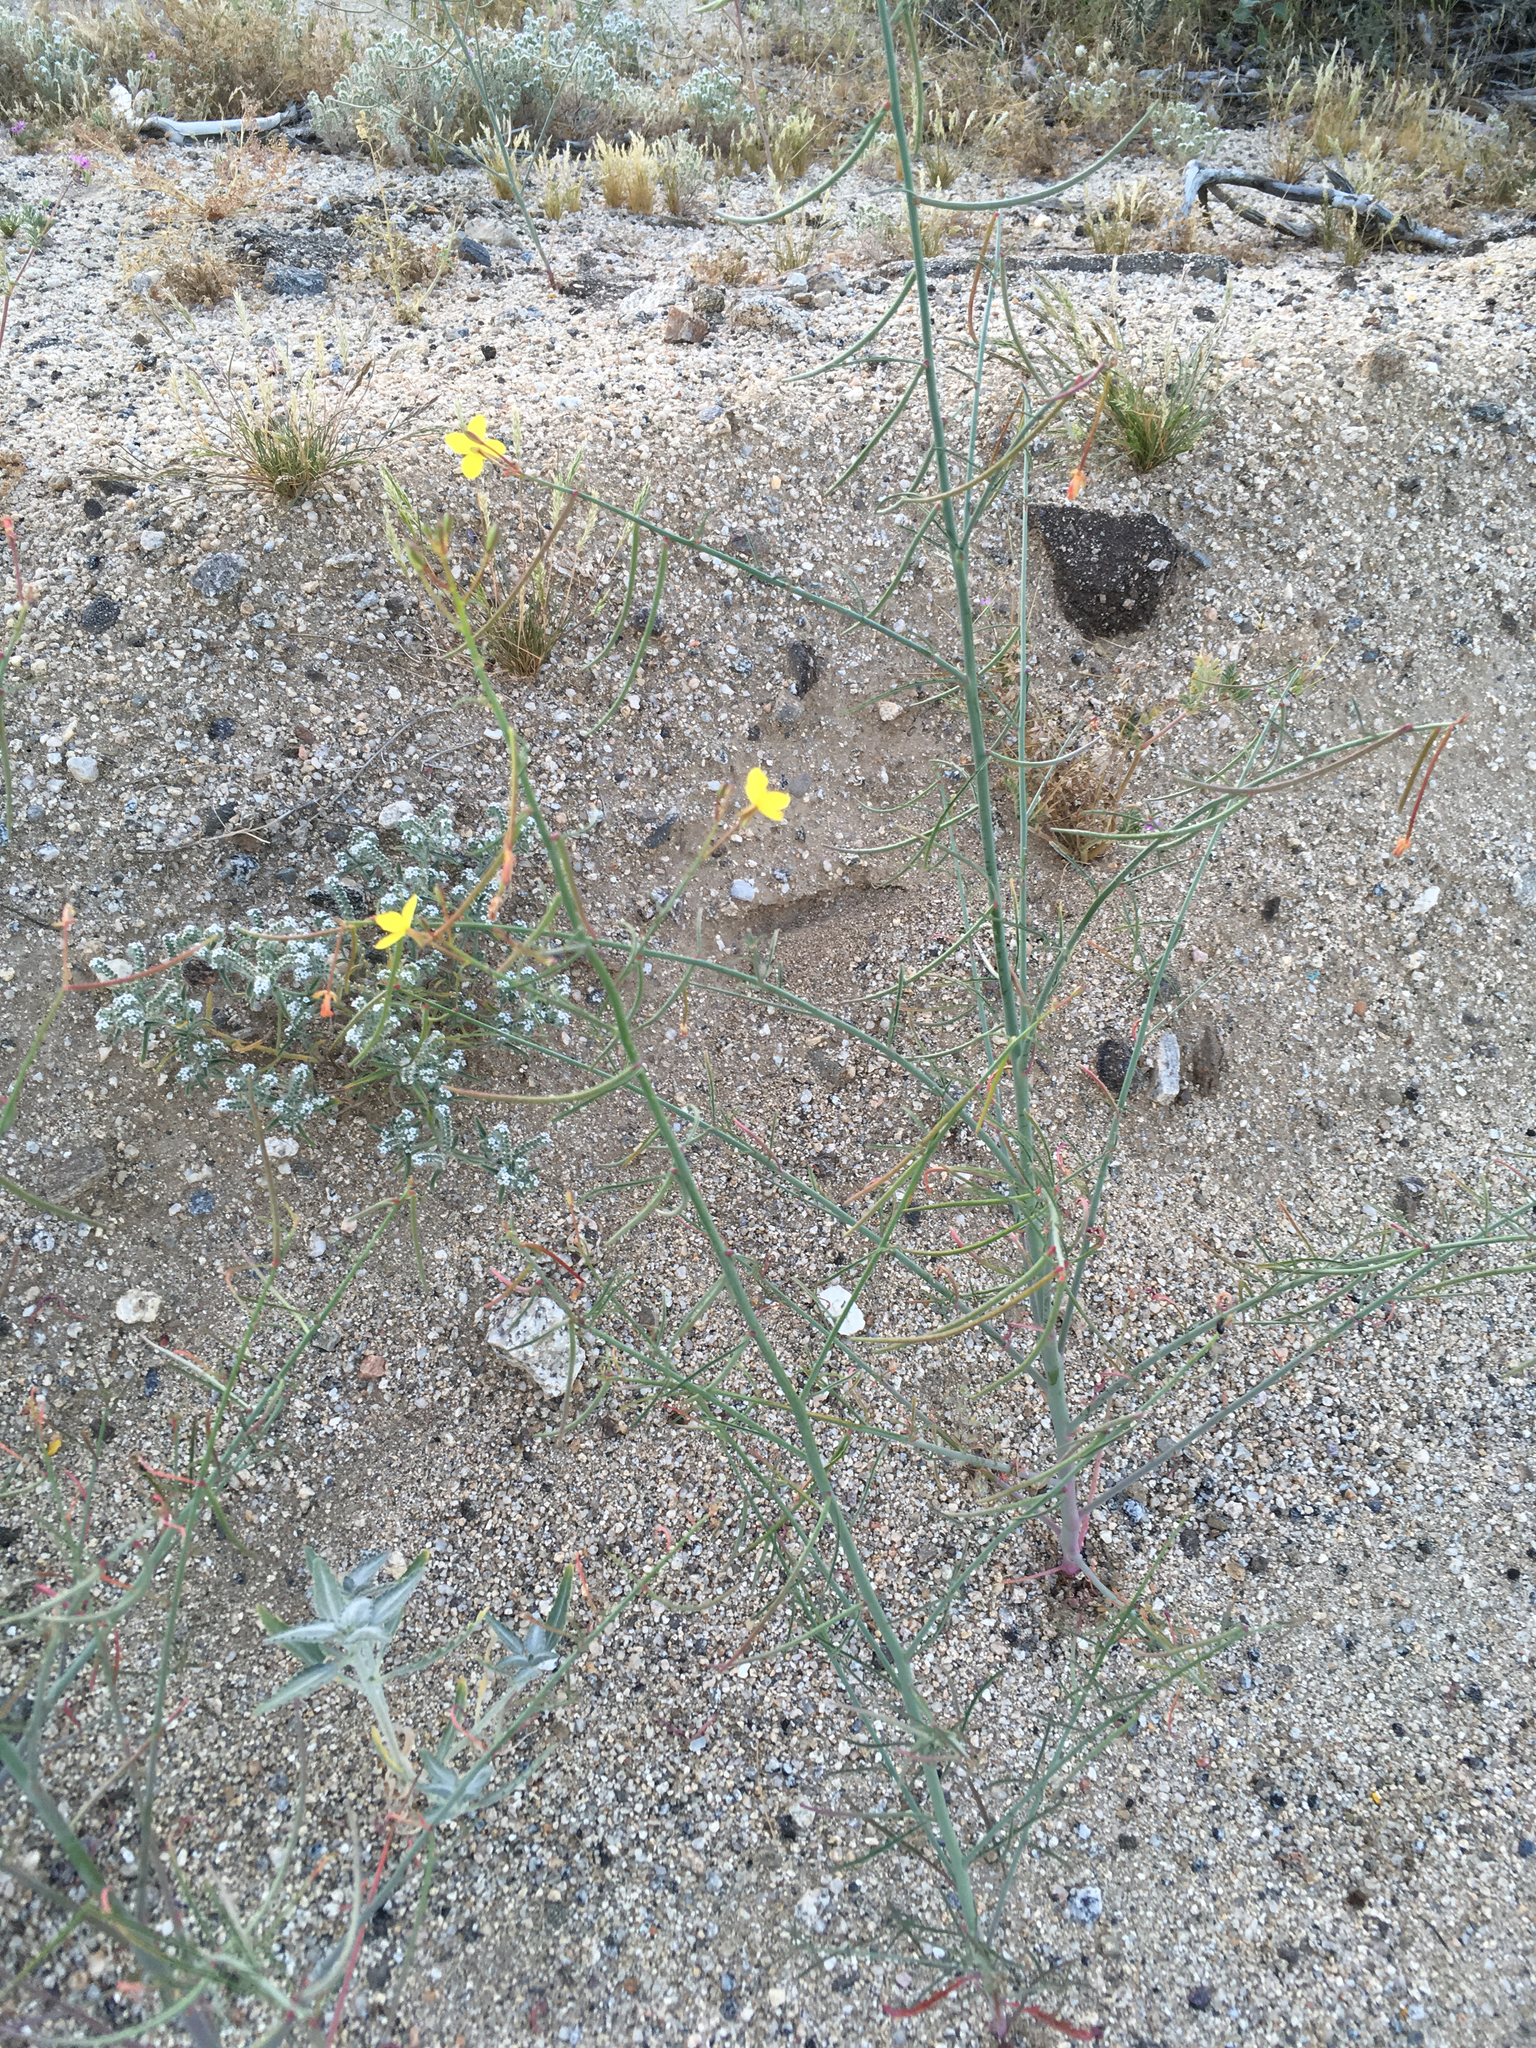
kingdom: Plantae
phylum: Tracheophyta
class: Magnoliopsida
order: Myrtales
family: Onagraceae
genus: Eulobus
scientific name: Eulobus californicus
